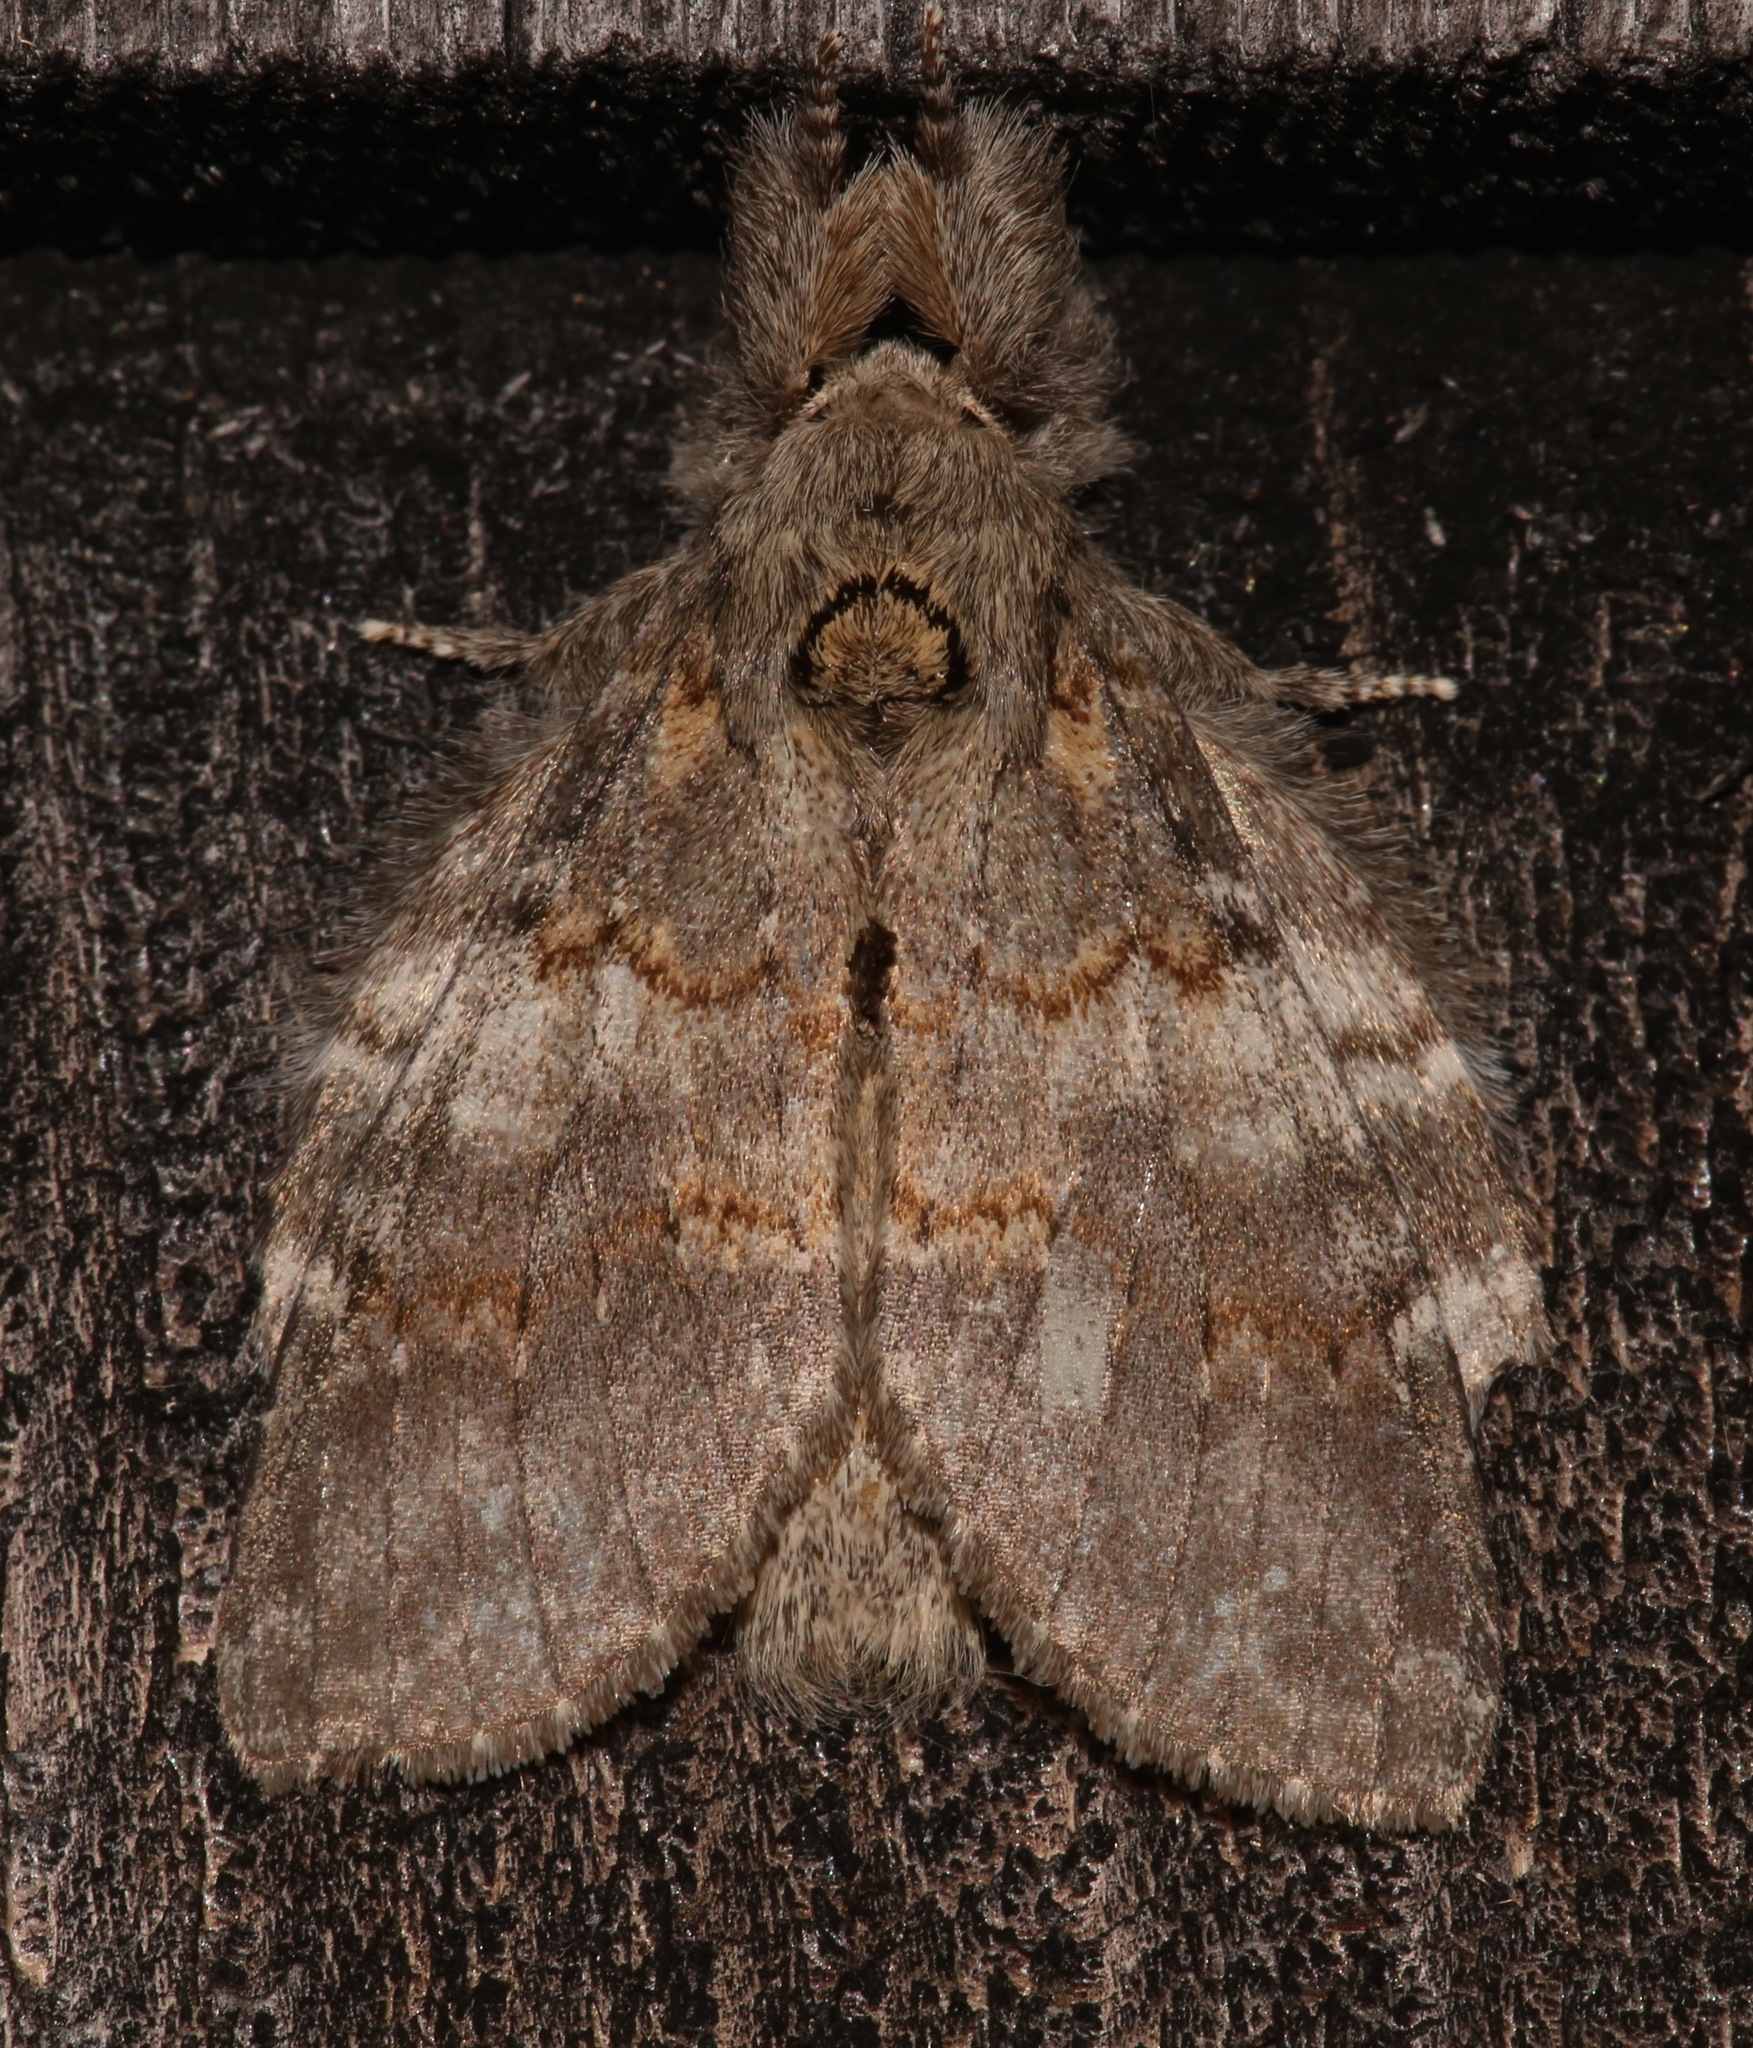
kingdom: Animalia
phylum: Arthropoda
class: Insecta
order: Lepidoptera
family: Notodontidae
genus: Peridea
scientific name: Peridea angulosa
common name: Angulose prominent
